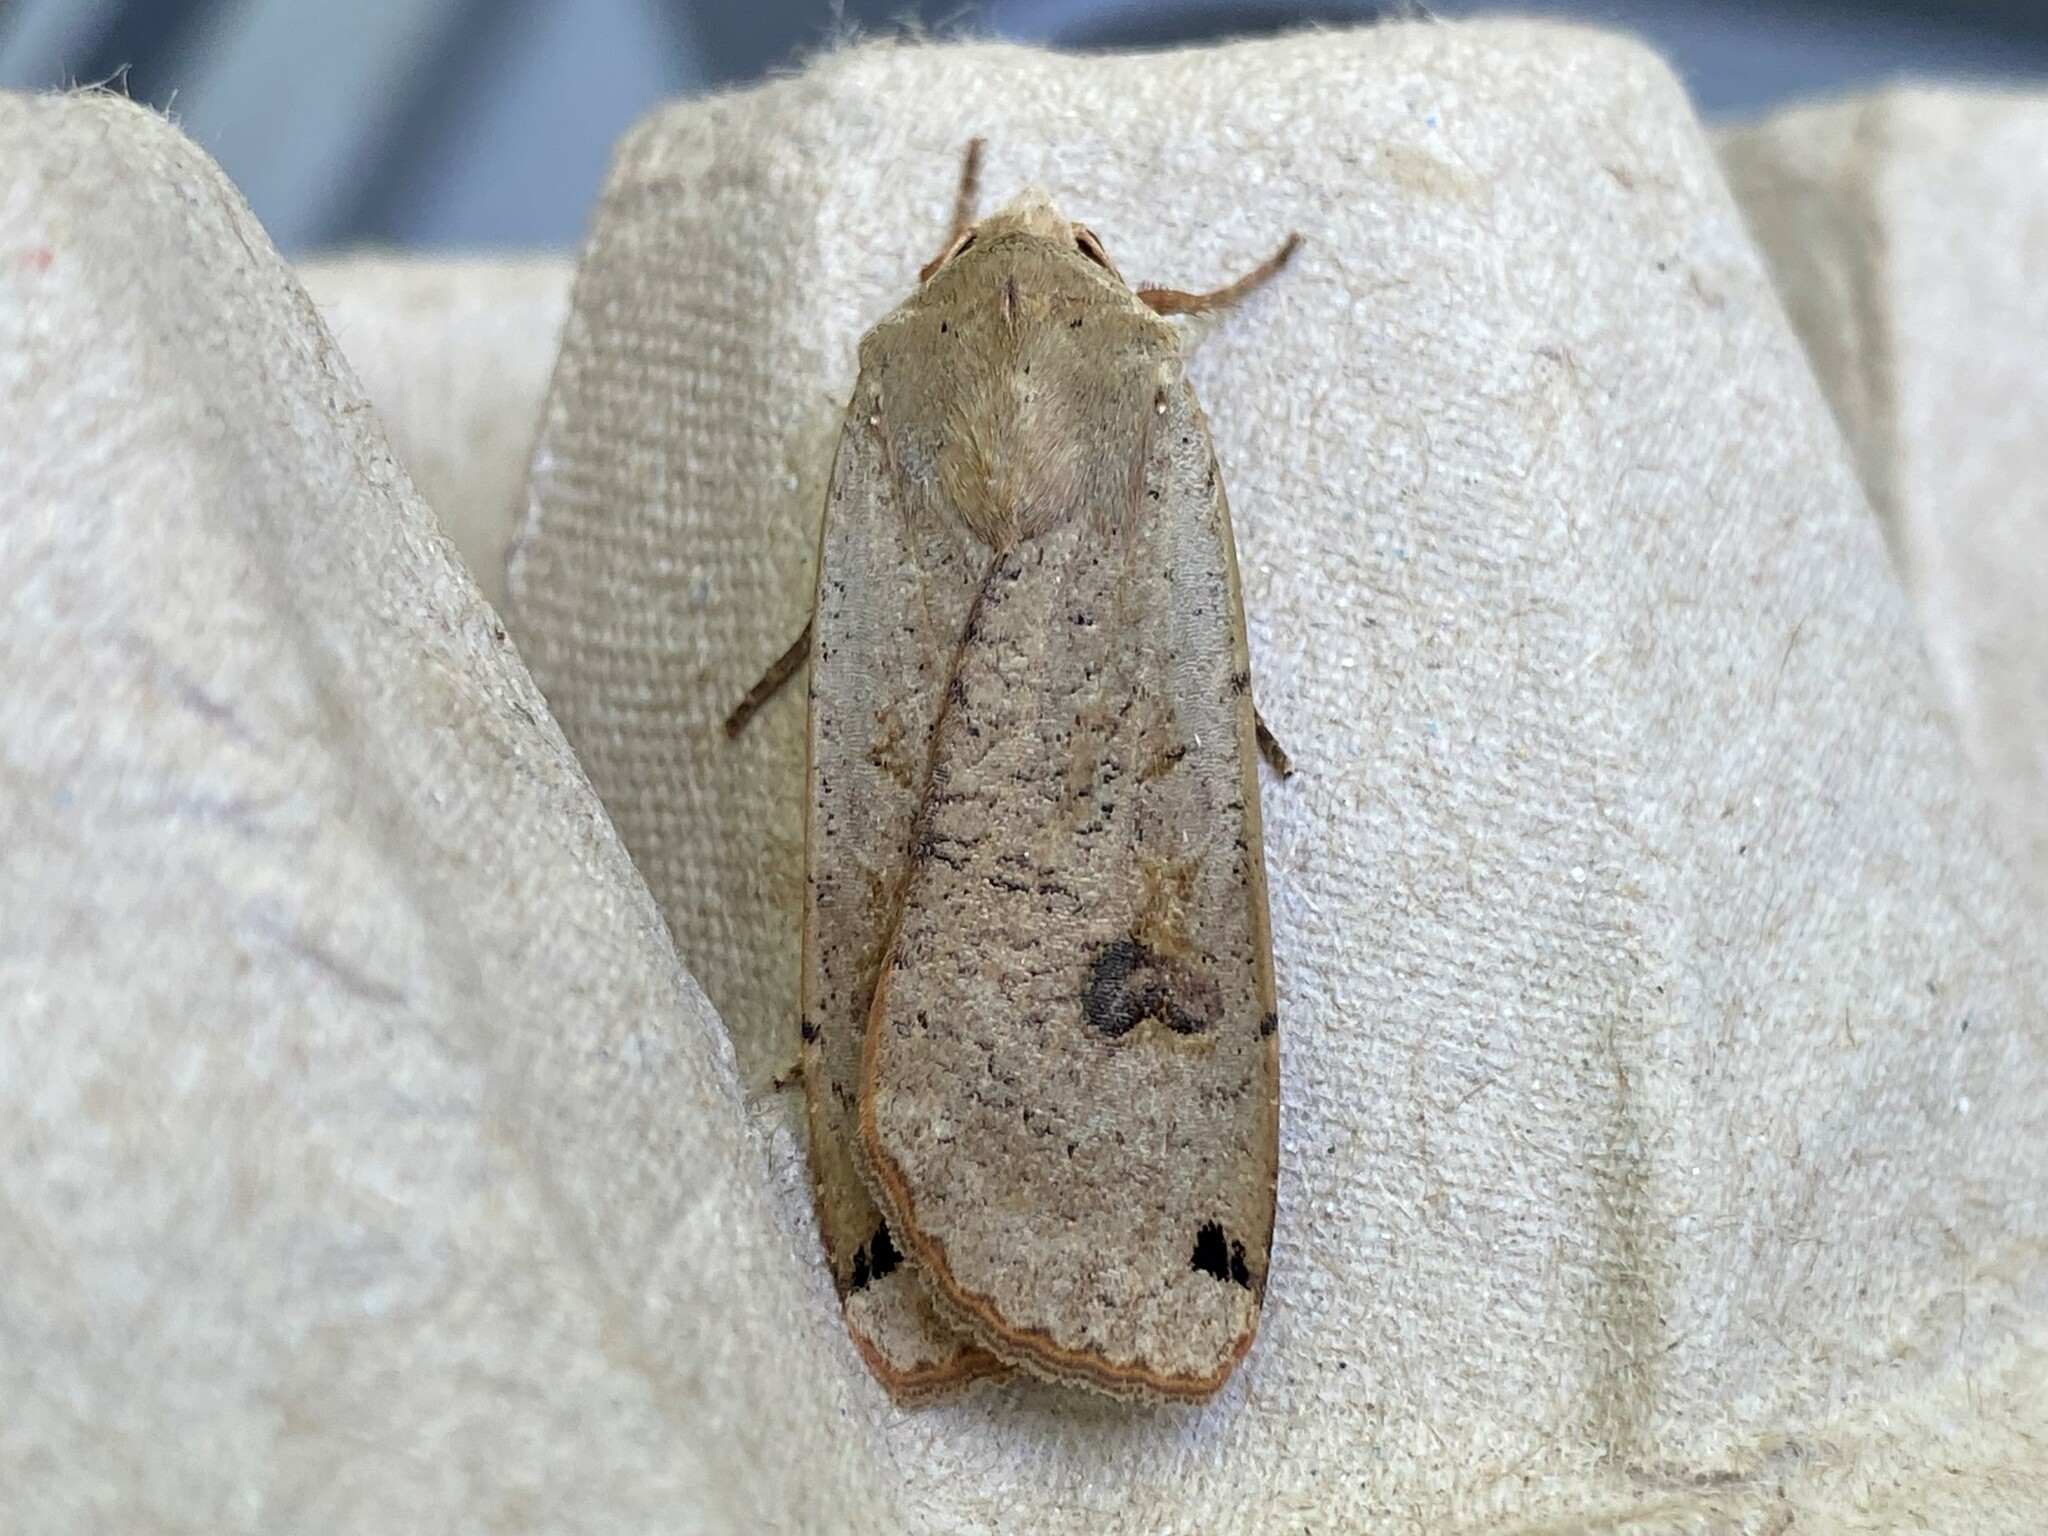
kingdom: Animalia
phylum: Arthropoda
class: Insecta
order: Lepidoptera
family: Noctuidae
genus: Noctua
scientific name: Noctua pronuba
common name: Large yellow underwing
